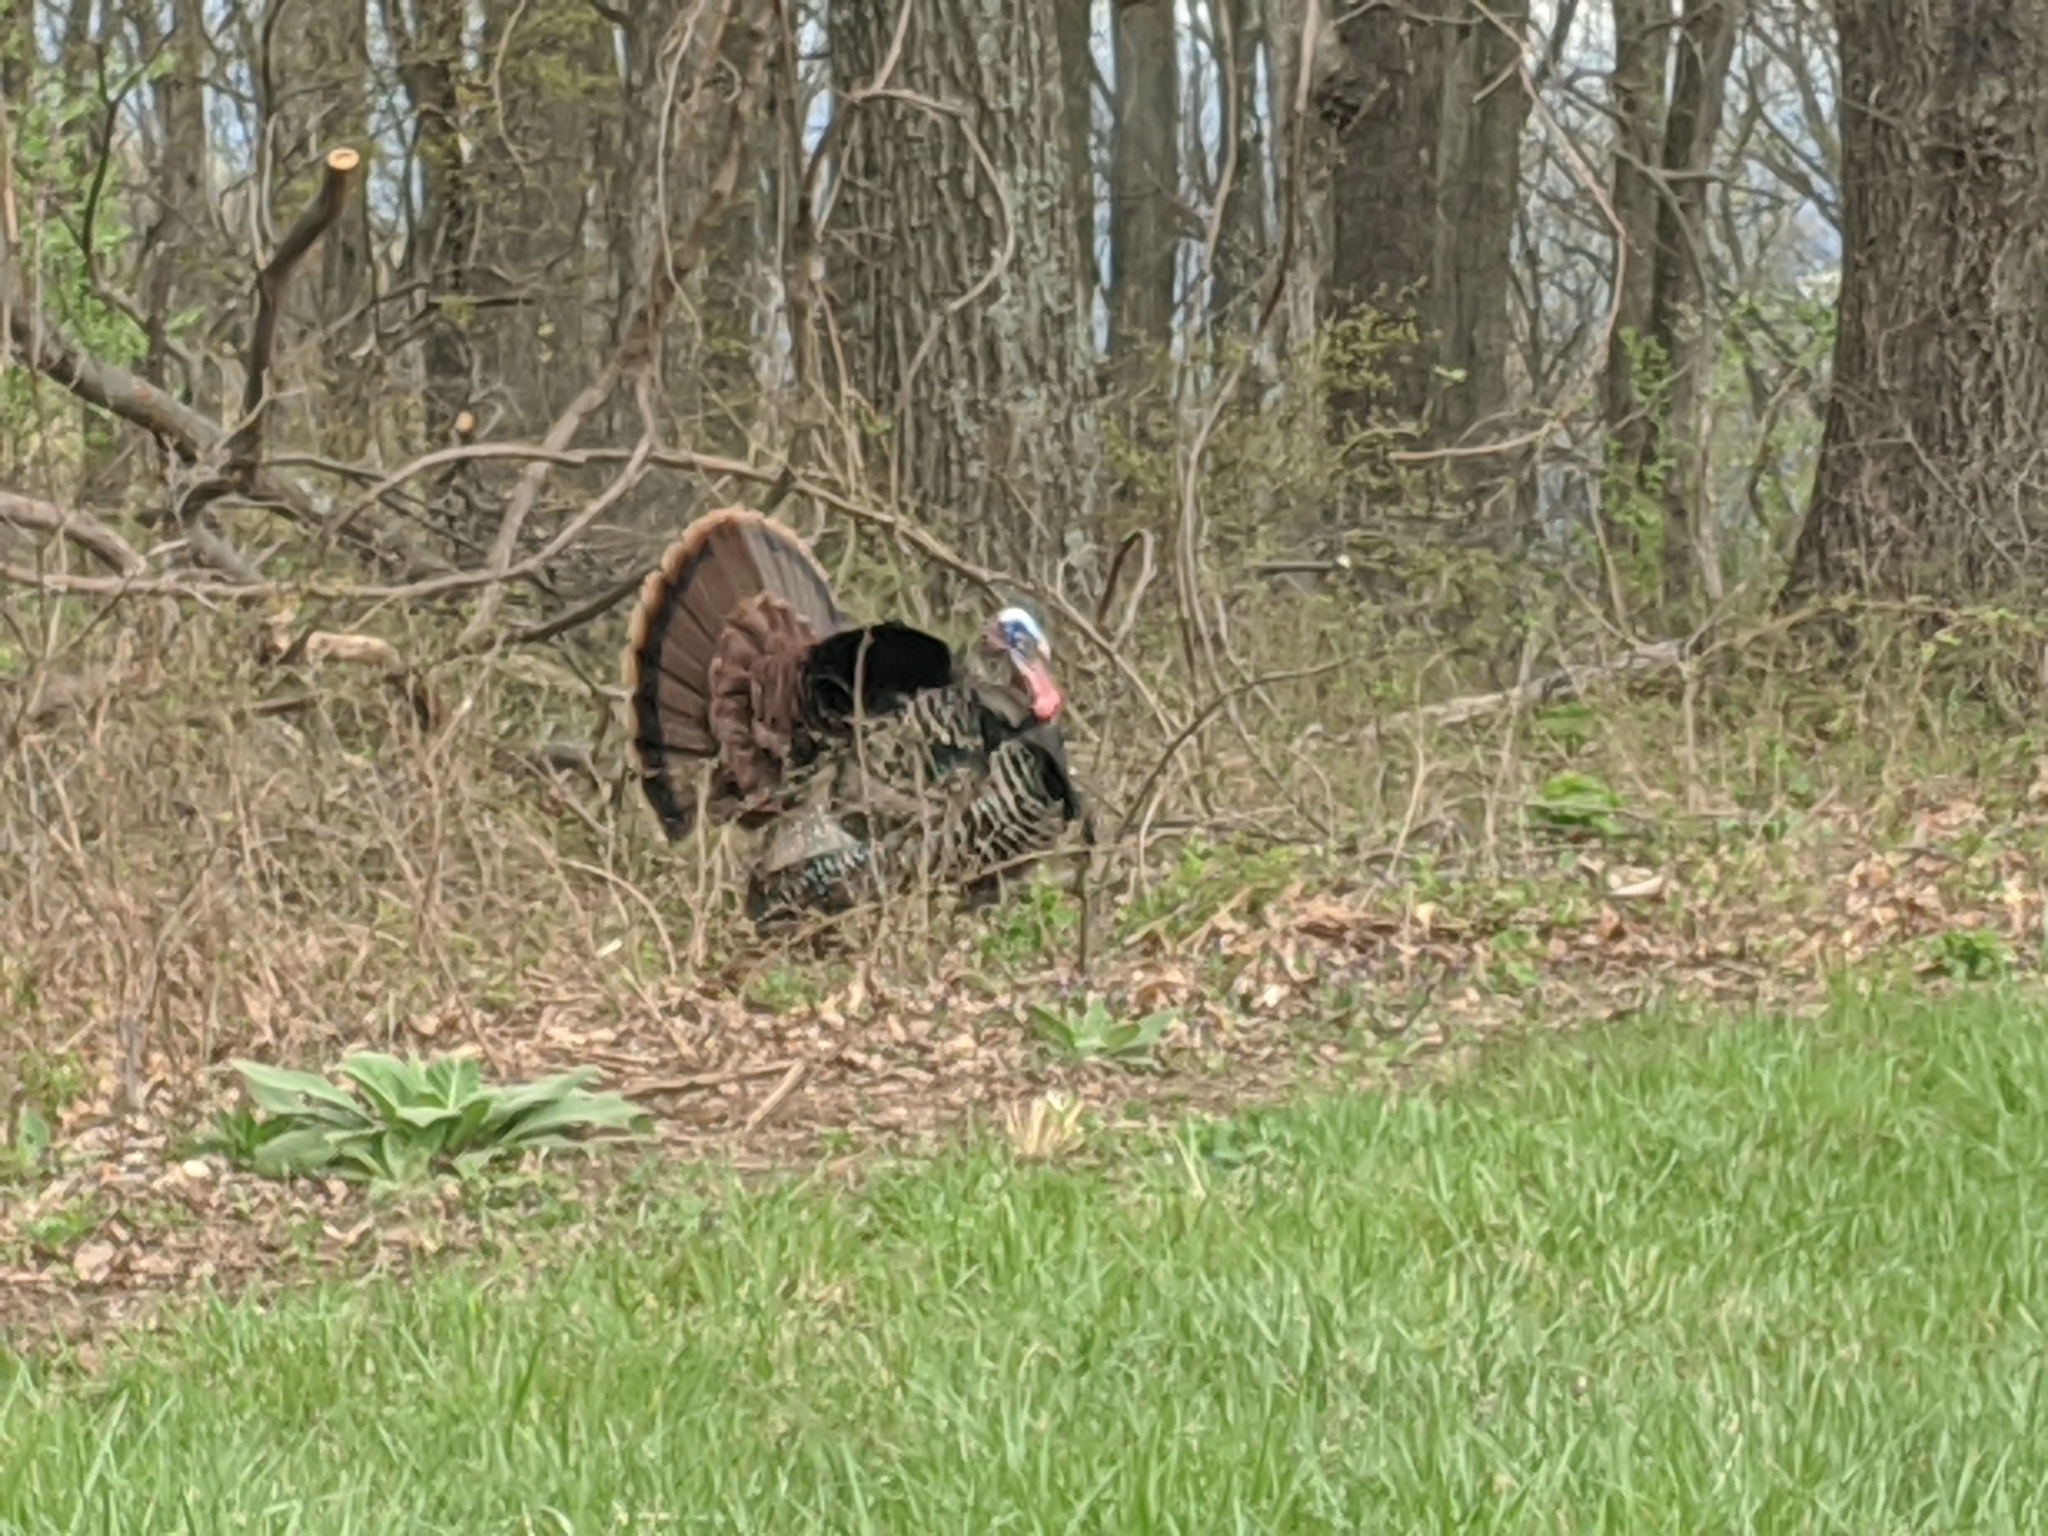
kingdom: Animalia
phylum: Chordata
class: Aves
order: Galliformes
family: Phasianidae
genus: Meleagris
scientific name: Meleagris gallopavo
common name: Wild turkey
